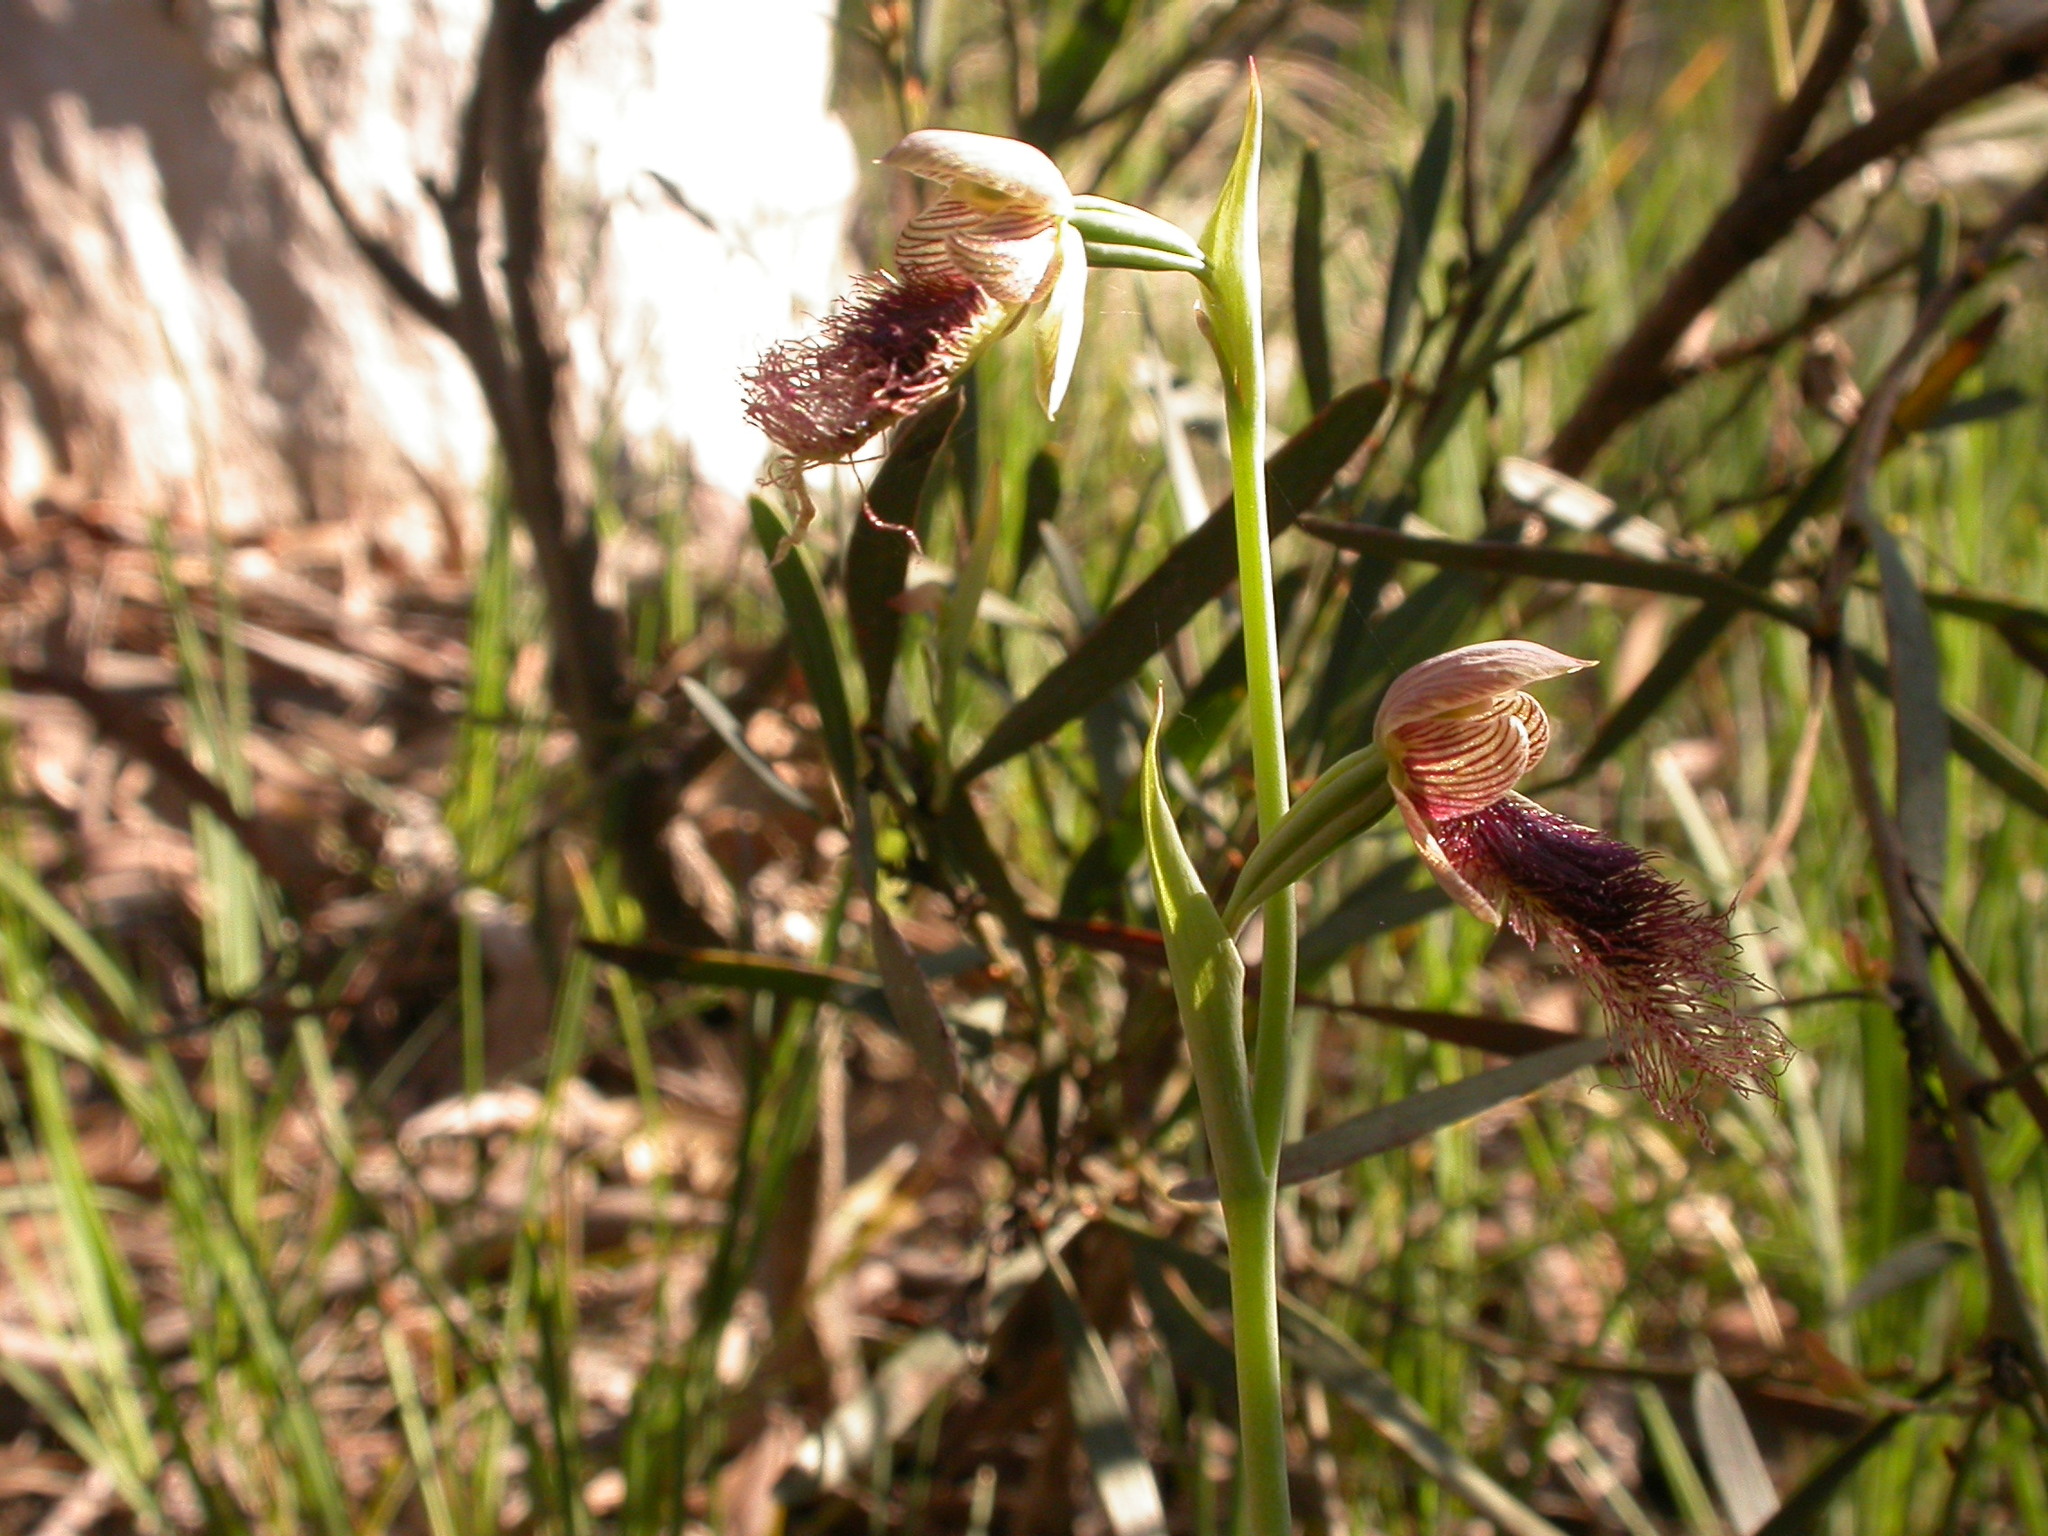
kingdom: Plantae
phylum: Tracheophyta
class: Liliopsida
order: Asparagales
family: Orchidaceae
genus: Calochilus
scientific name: Calochilus robertsonii
